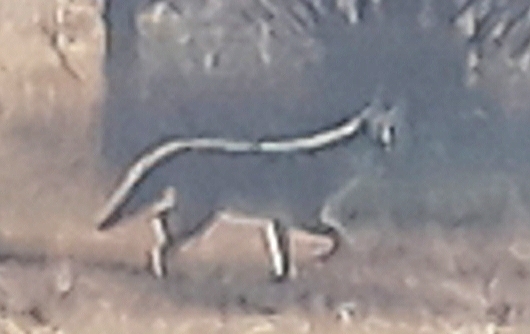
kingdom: Animalia
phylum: Chordata
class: Mammalia
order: Carnivora
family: Canidae
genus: Canis
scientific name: Canis latrans
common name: Coyote
